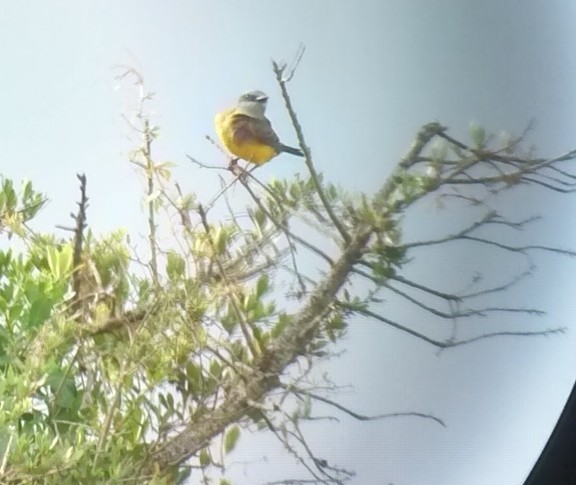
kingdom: Animalia
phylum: Chordata
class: Aves
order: Passeriformes
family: Tyrannidae
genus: Tyrannus
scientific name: Tyrannus melancholicus
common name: Tropical kingbird
